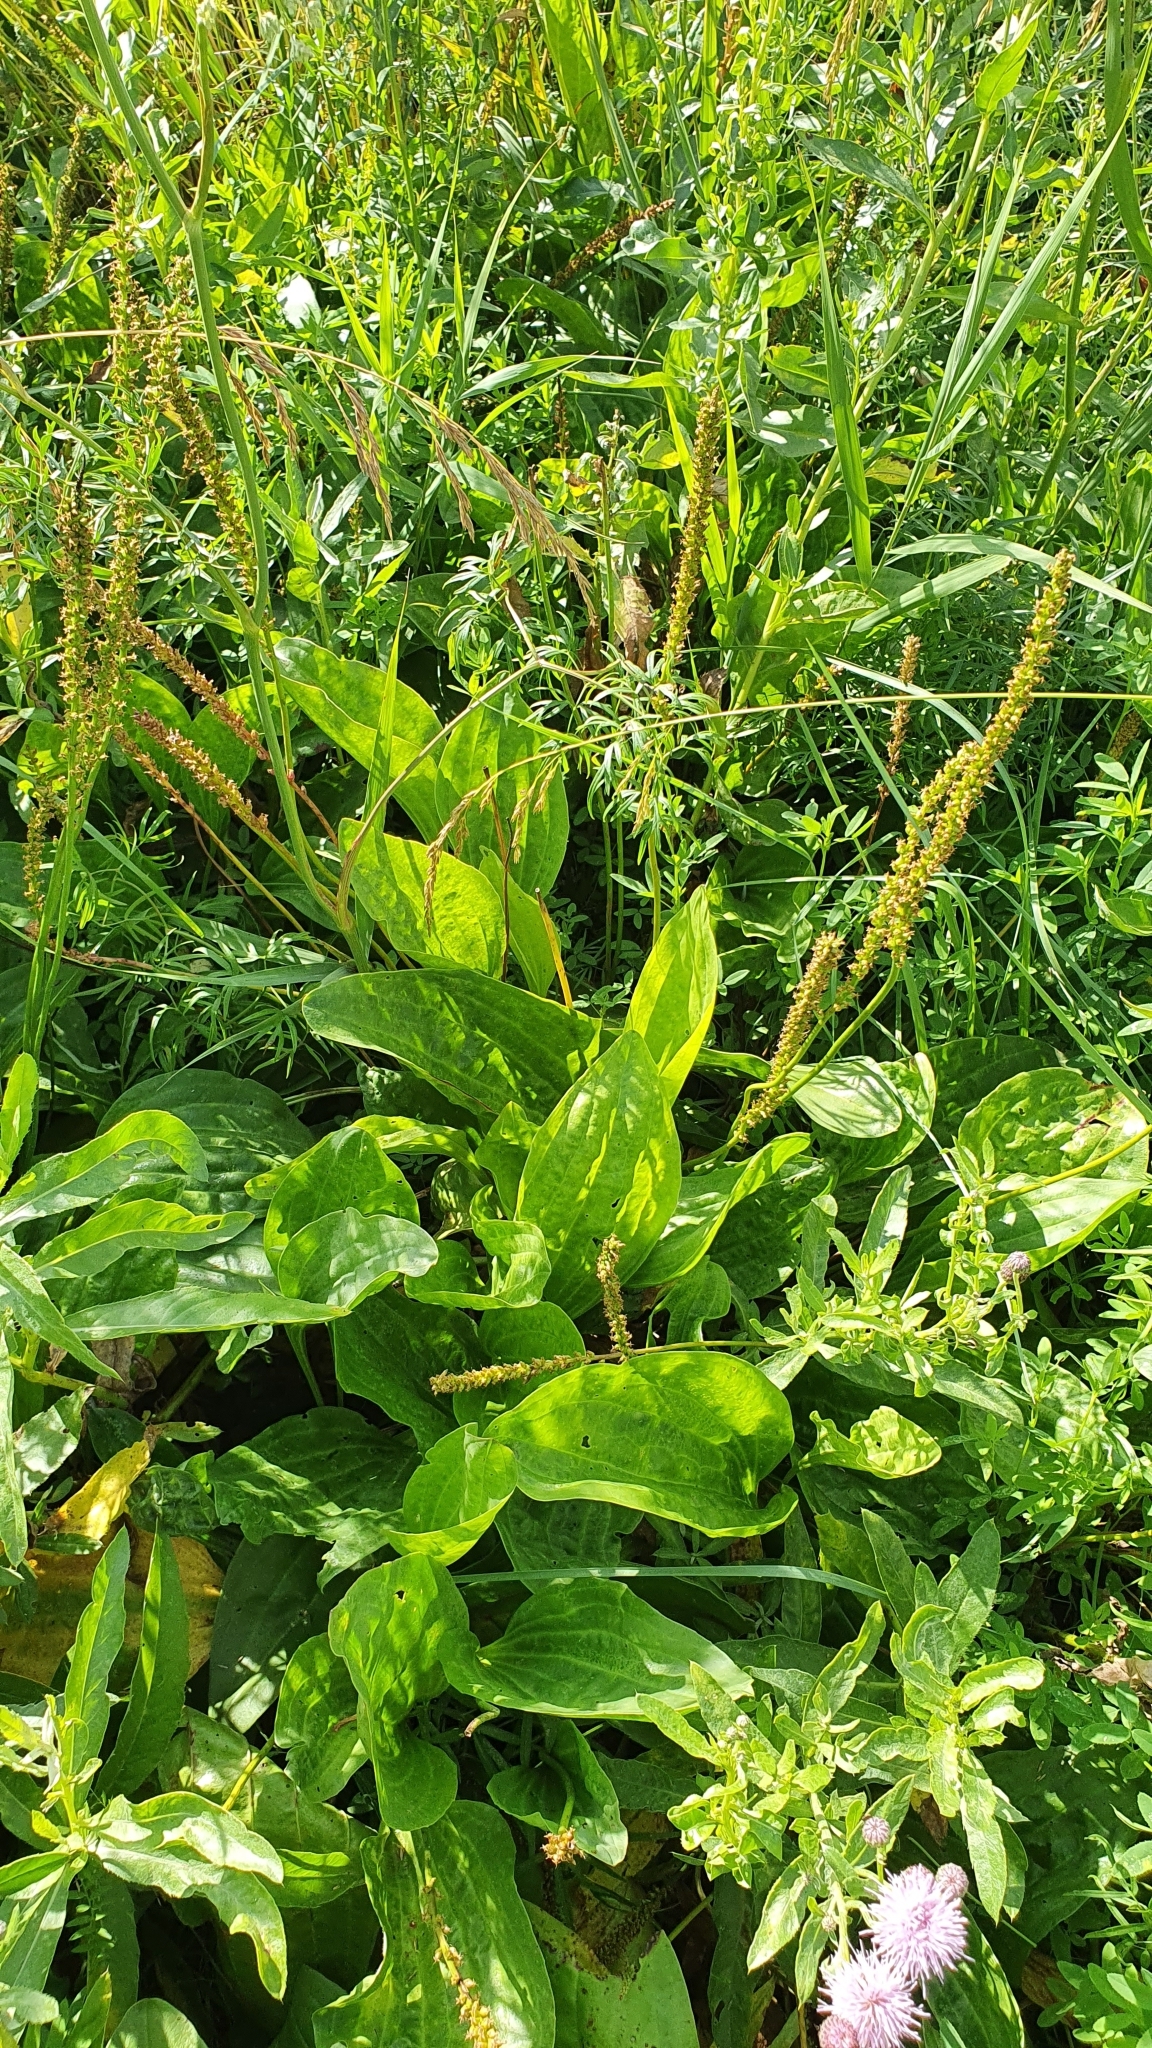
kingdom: Plantae
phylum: Tracheophyta
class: Magnoliopsida
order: Lamiales
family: Plantaginaceae
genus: Plantago
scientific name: Plantago cornuti
